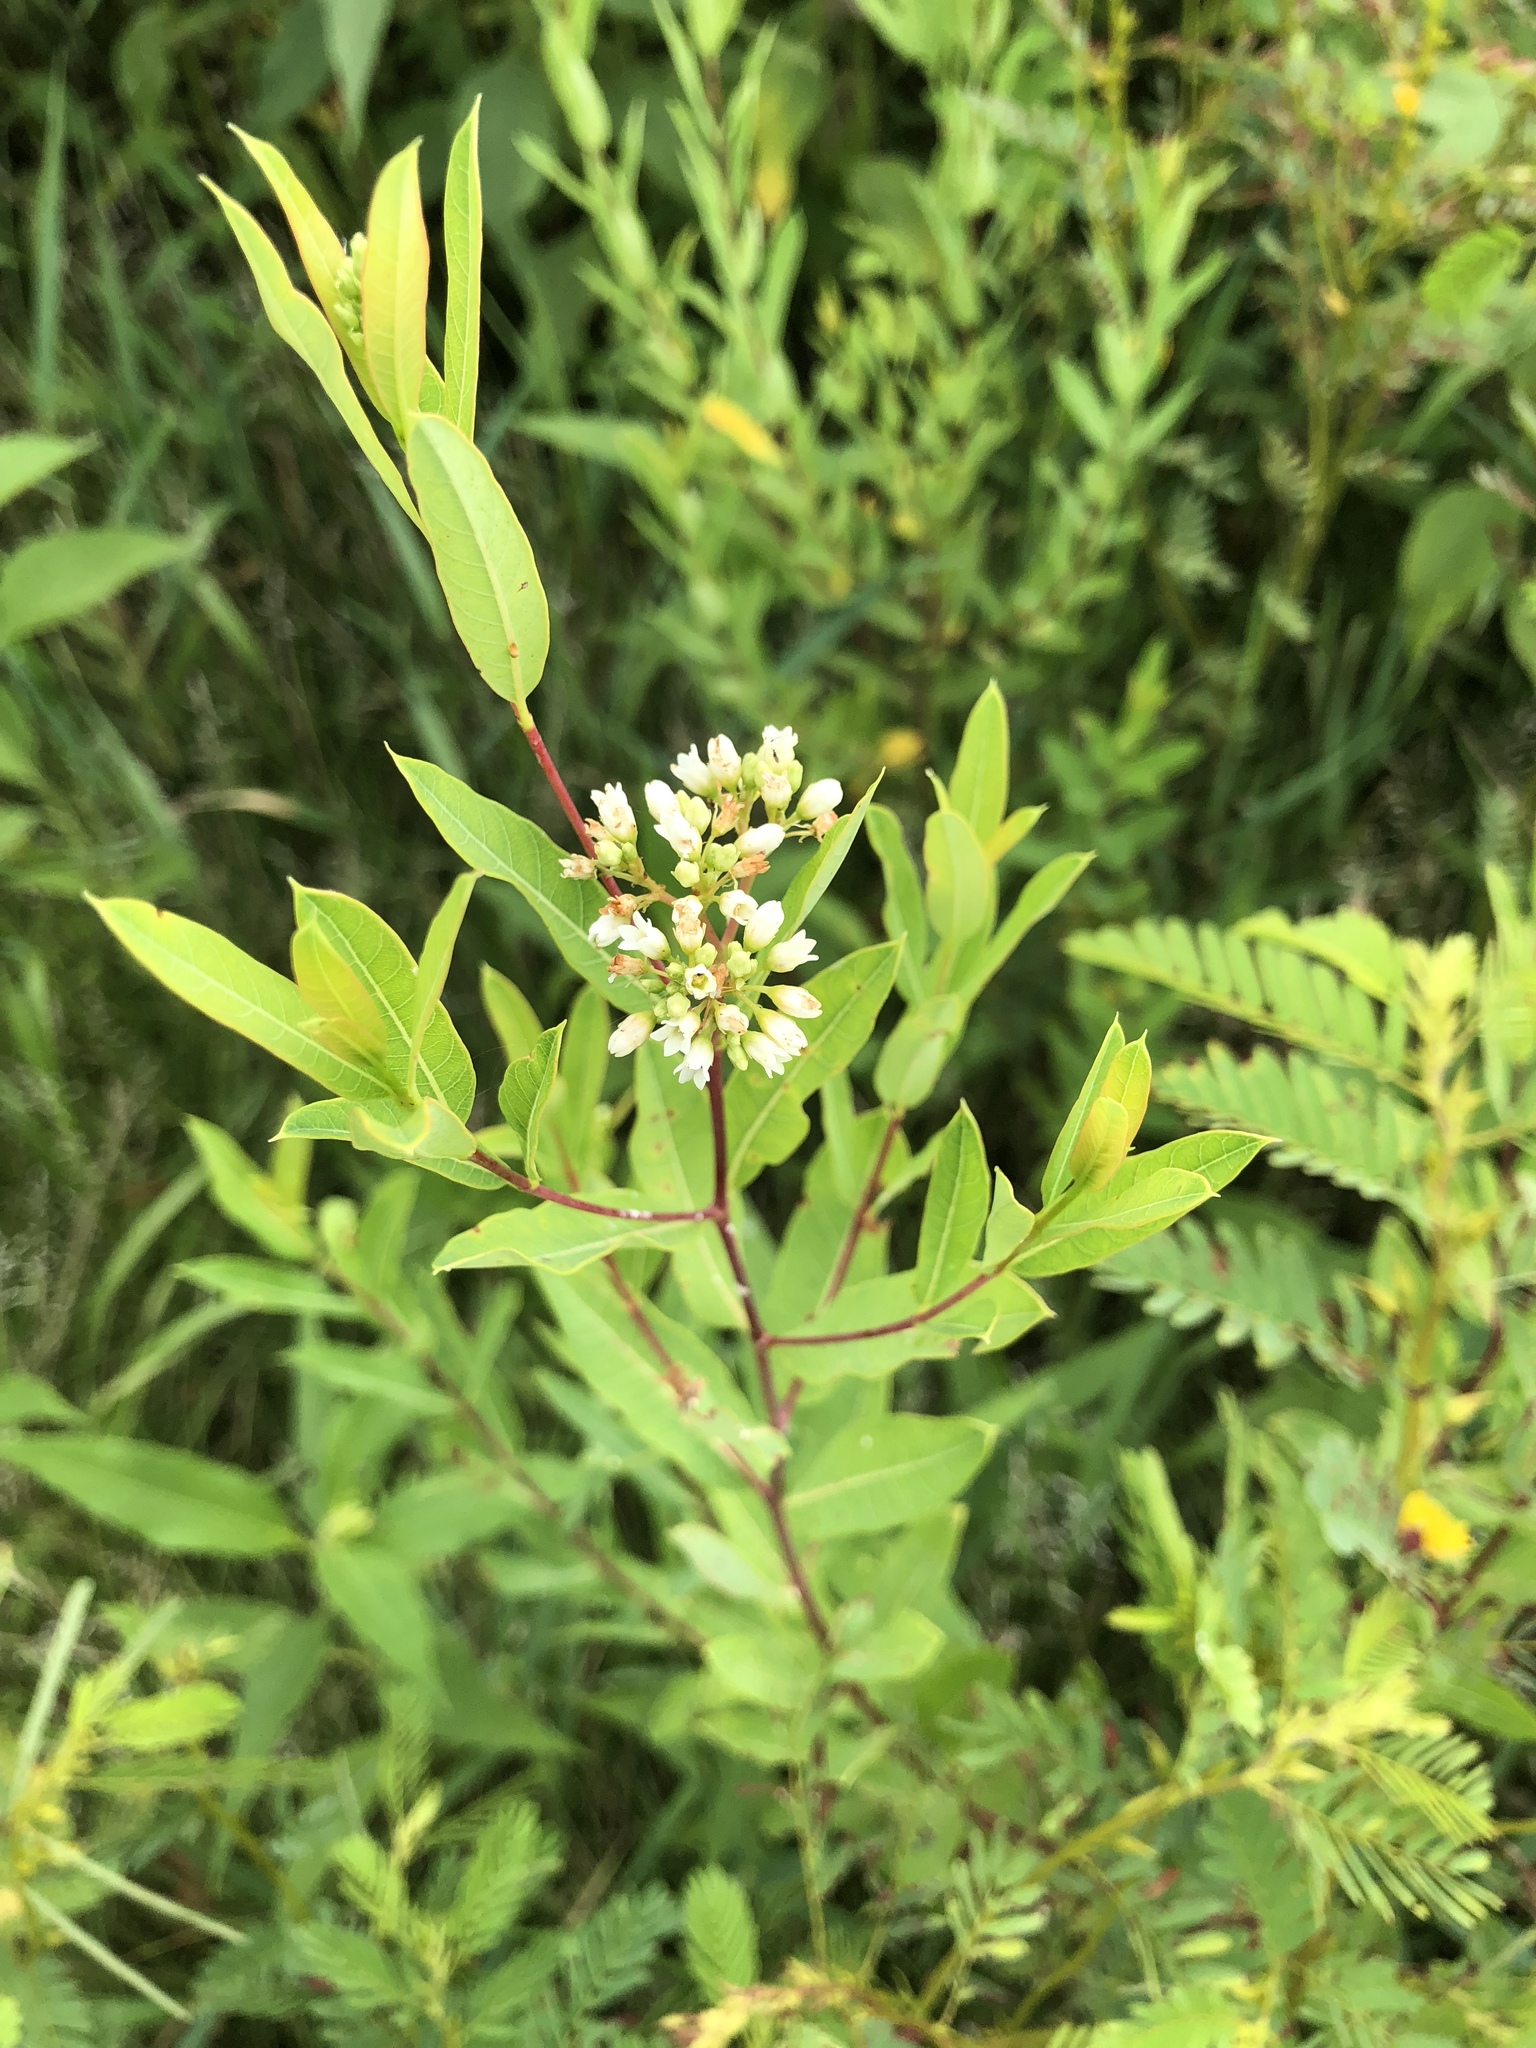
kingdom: Plantae
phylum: Tracheophyta
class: Magnoliopsida
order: Gentianales
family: Apocynaceae
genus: Apocynum
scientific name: Apocynum cannabinum
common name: Hemp dogbane
